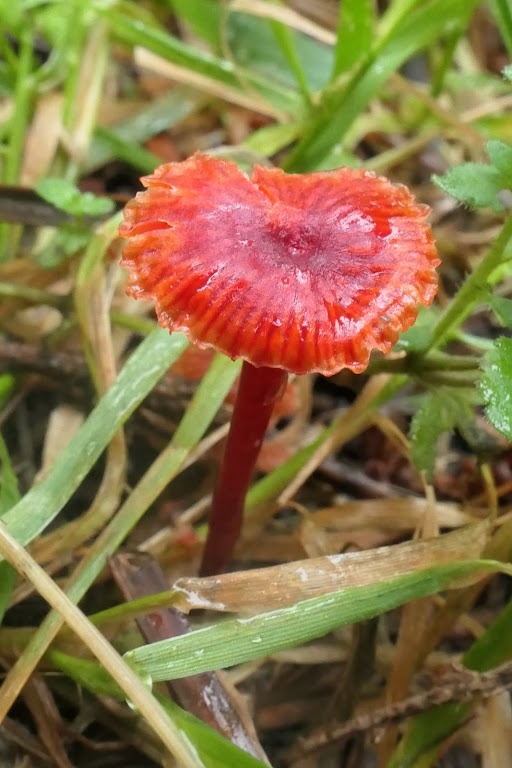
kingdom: Fungi
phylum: Basidiomycota
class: Agaricomycetes
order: Agaricales
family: Mycenaceae
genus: Cruentomycena
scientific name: Cruentomycena viscidocruenta
